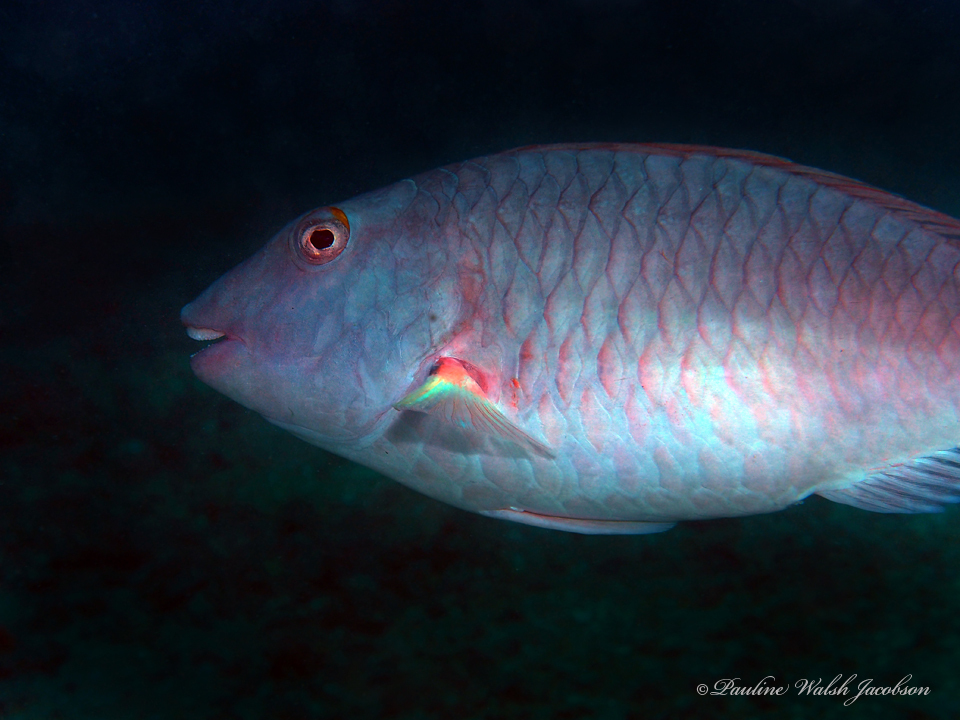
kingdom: Animalia
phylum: Chordata
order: Perciformes
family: Scaridae
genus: Sparisoma
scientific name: Sparisoma chrysopterum
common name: Redtail parrotfish
